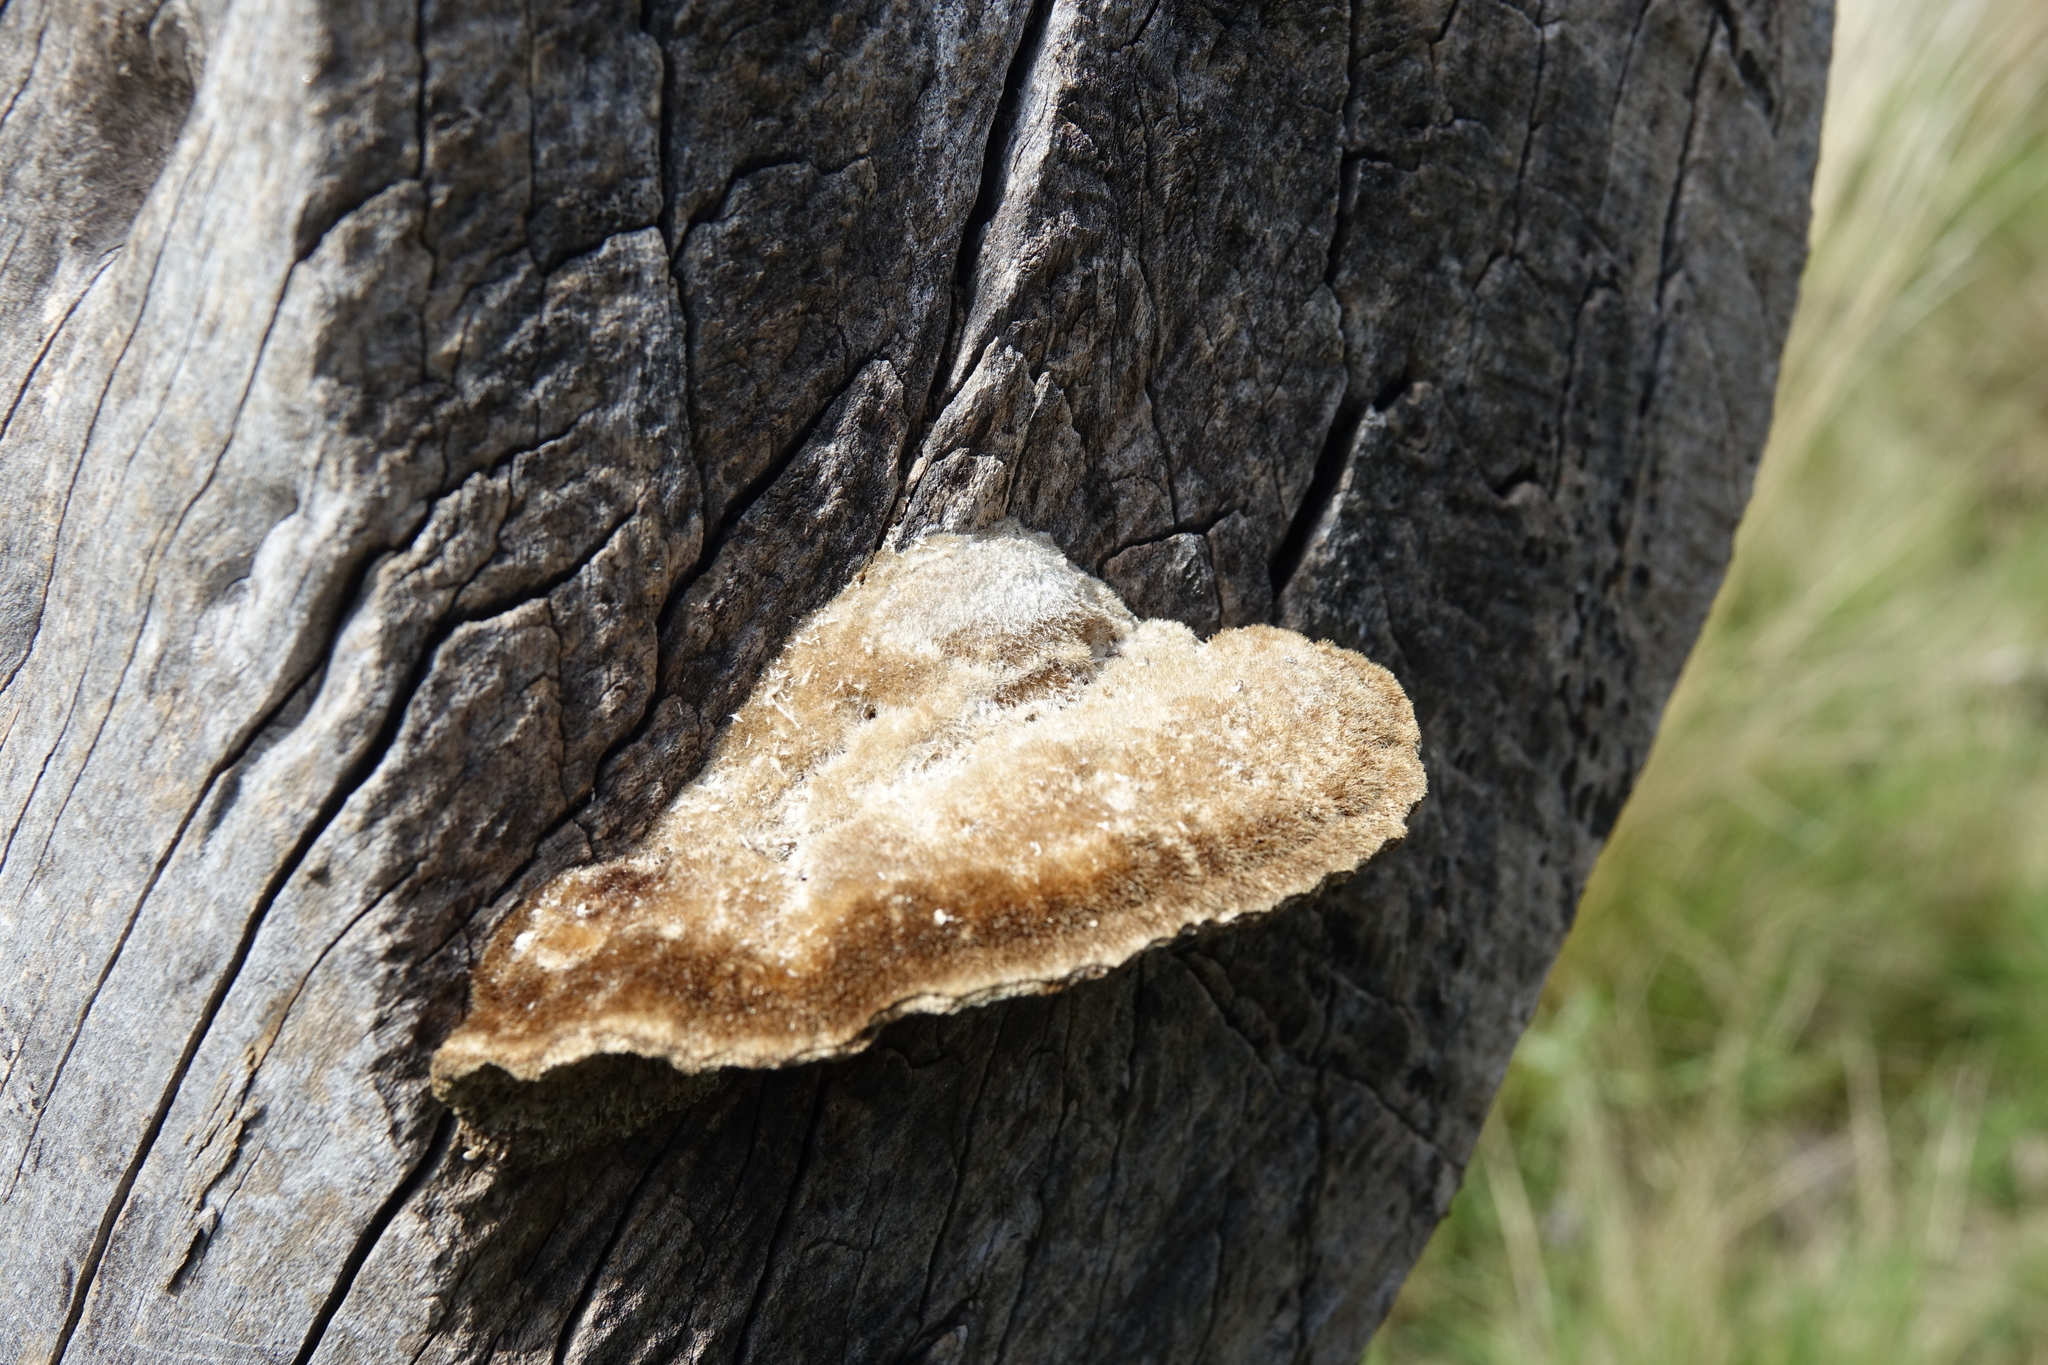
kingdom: Fungi
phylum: Basidiomycota
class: Agaricomycetes
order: Polyporales
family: Polyporaceae
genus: Coriolopsis
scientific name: Coriolopsis gallica
